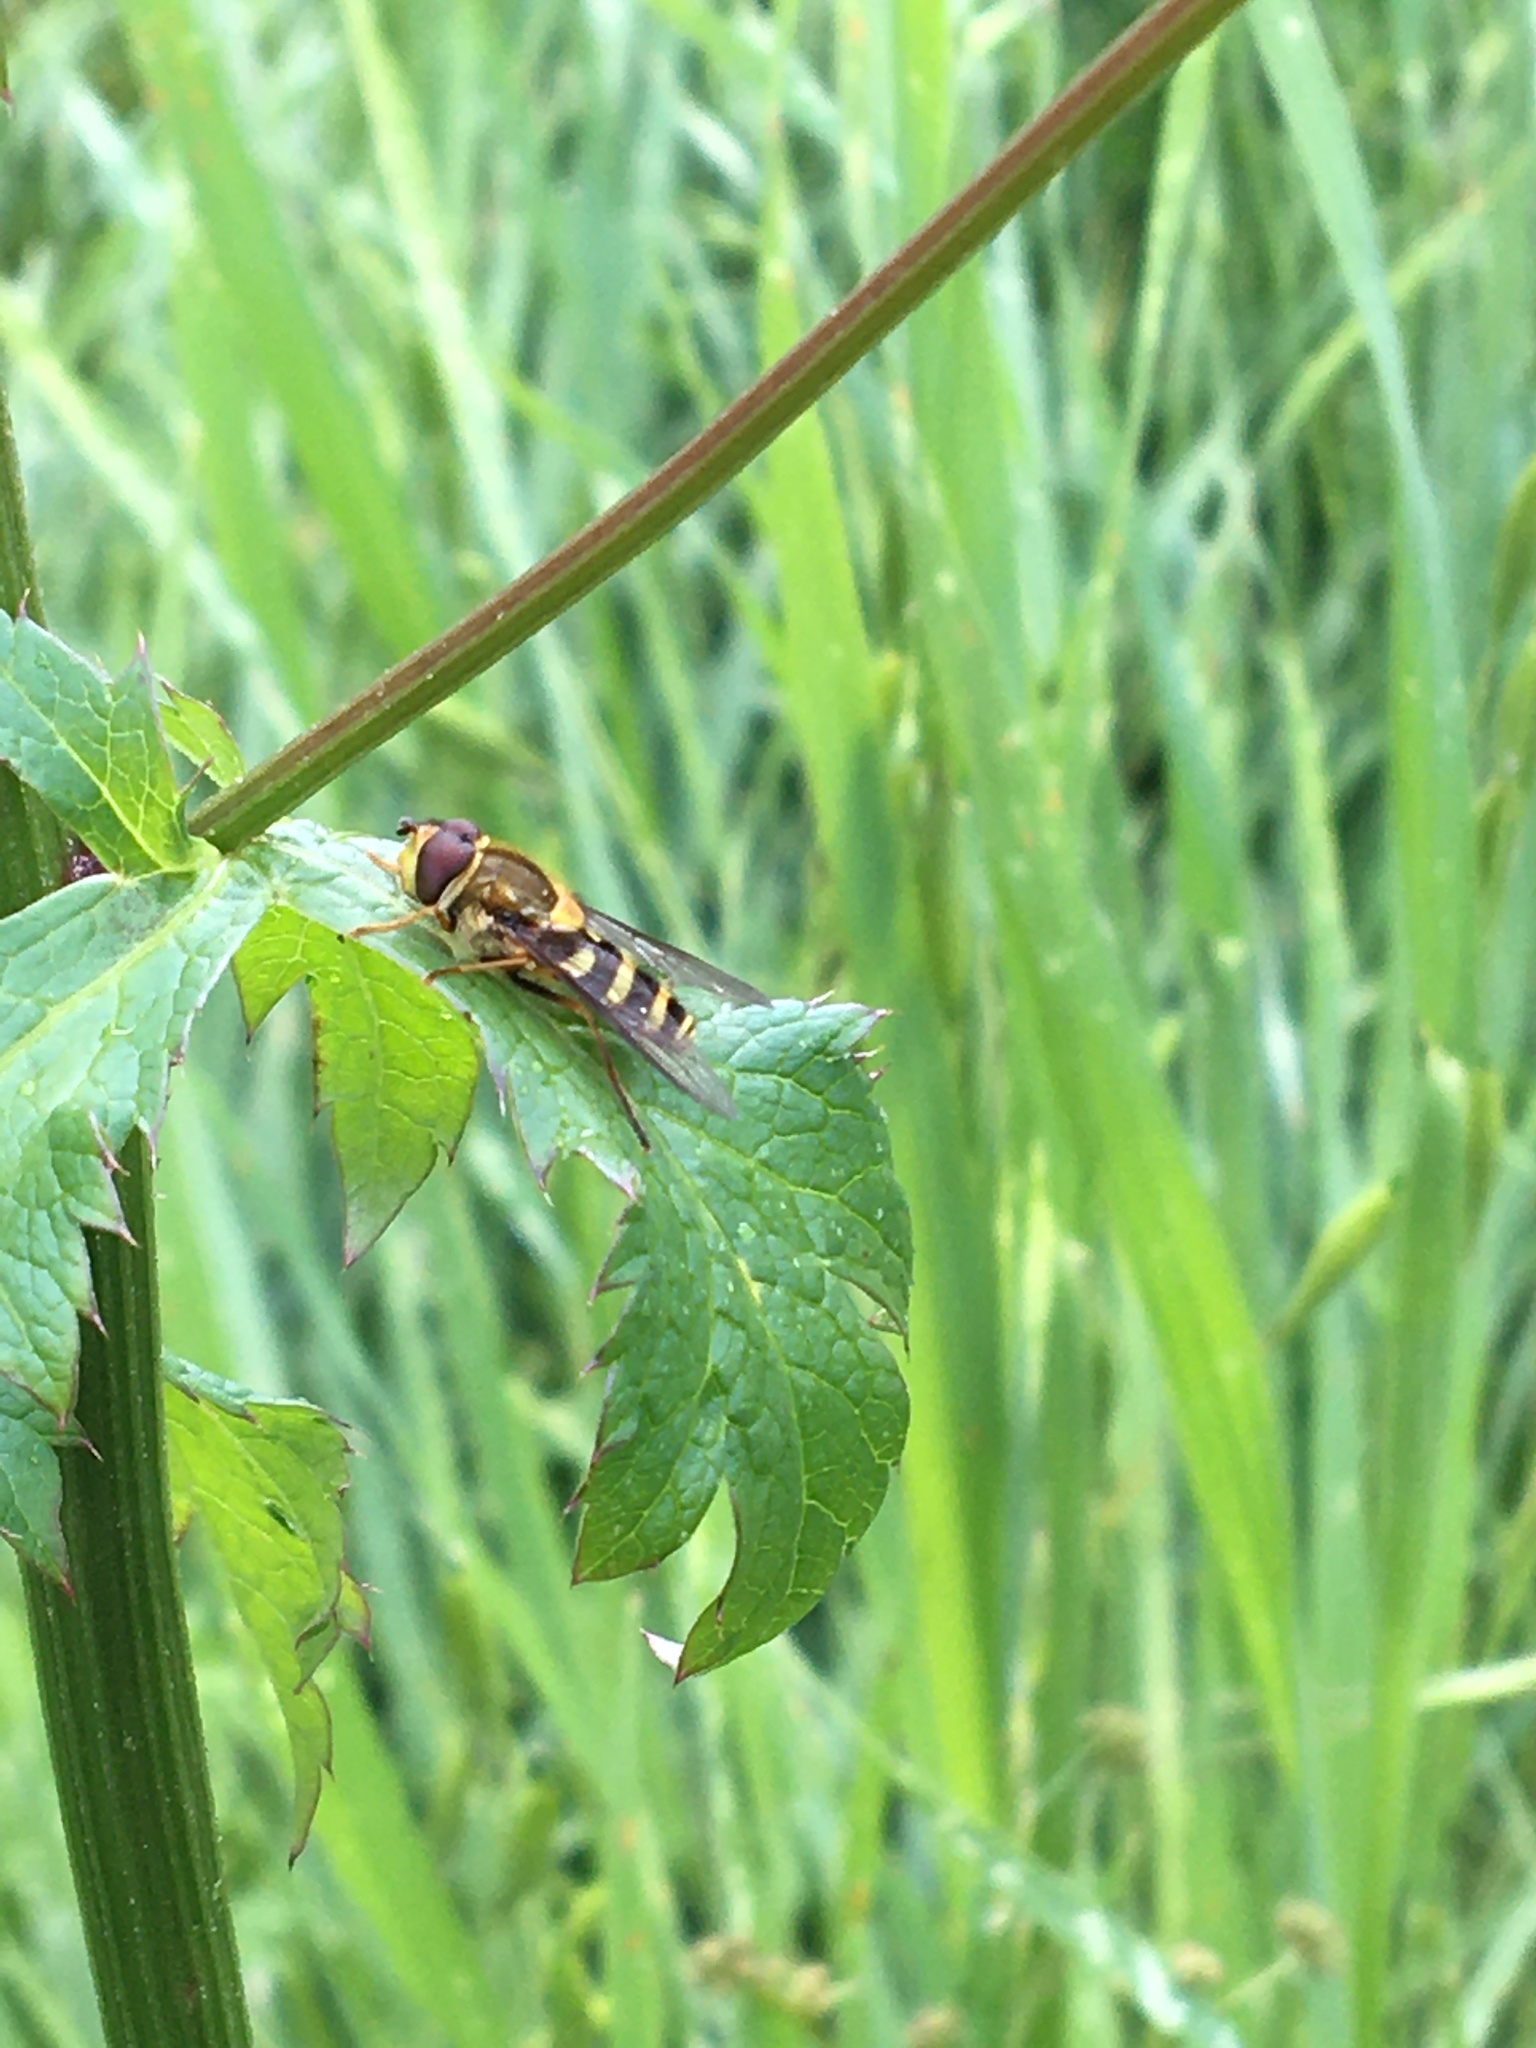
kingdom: Animalia
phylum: Arthropoda
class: Insecta
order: Diptera
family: Syrphidae
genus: Syrphus
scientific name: Syrphus opinator
